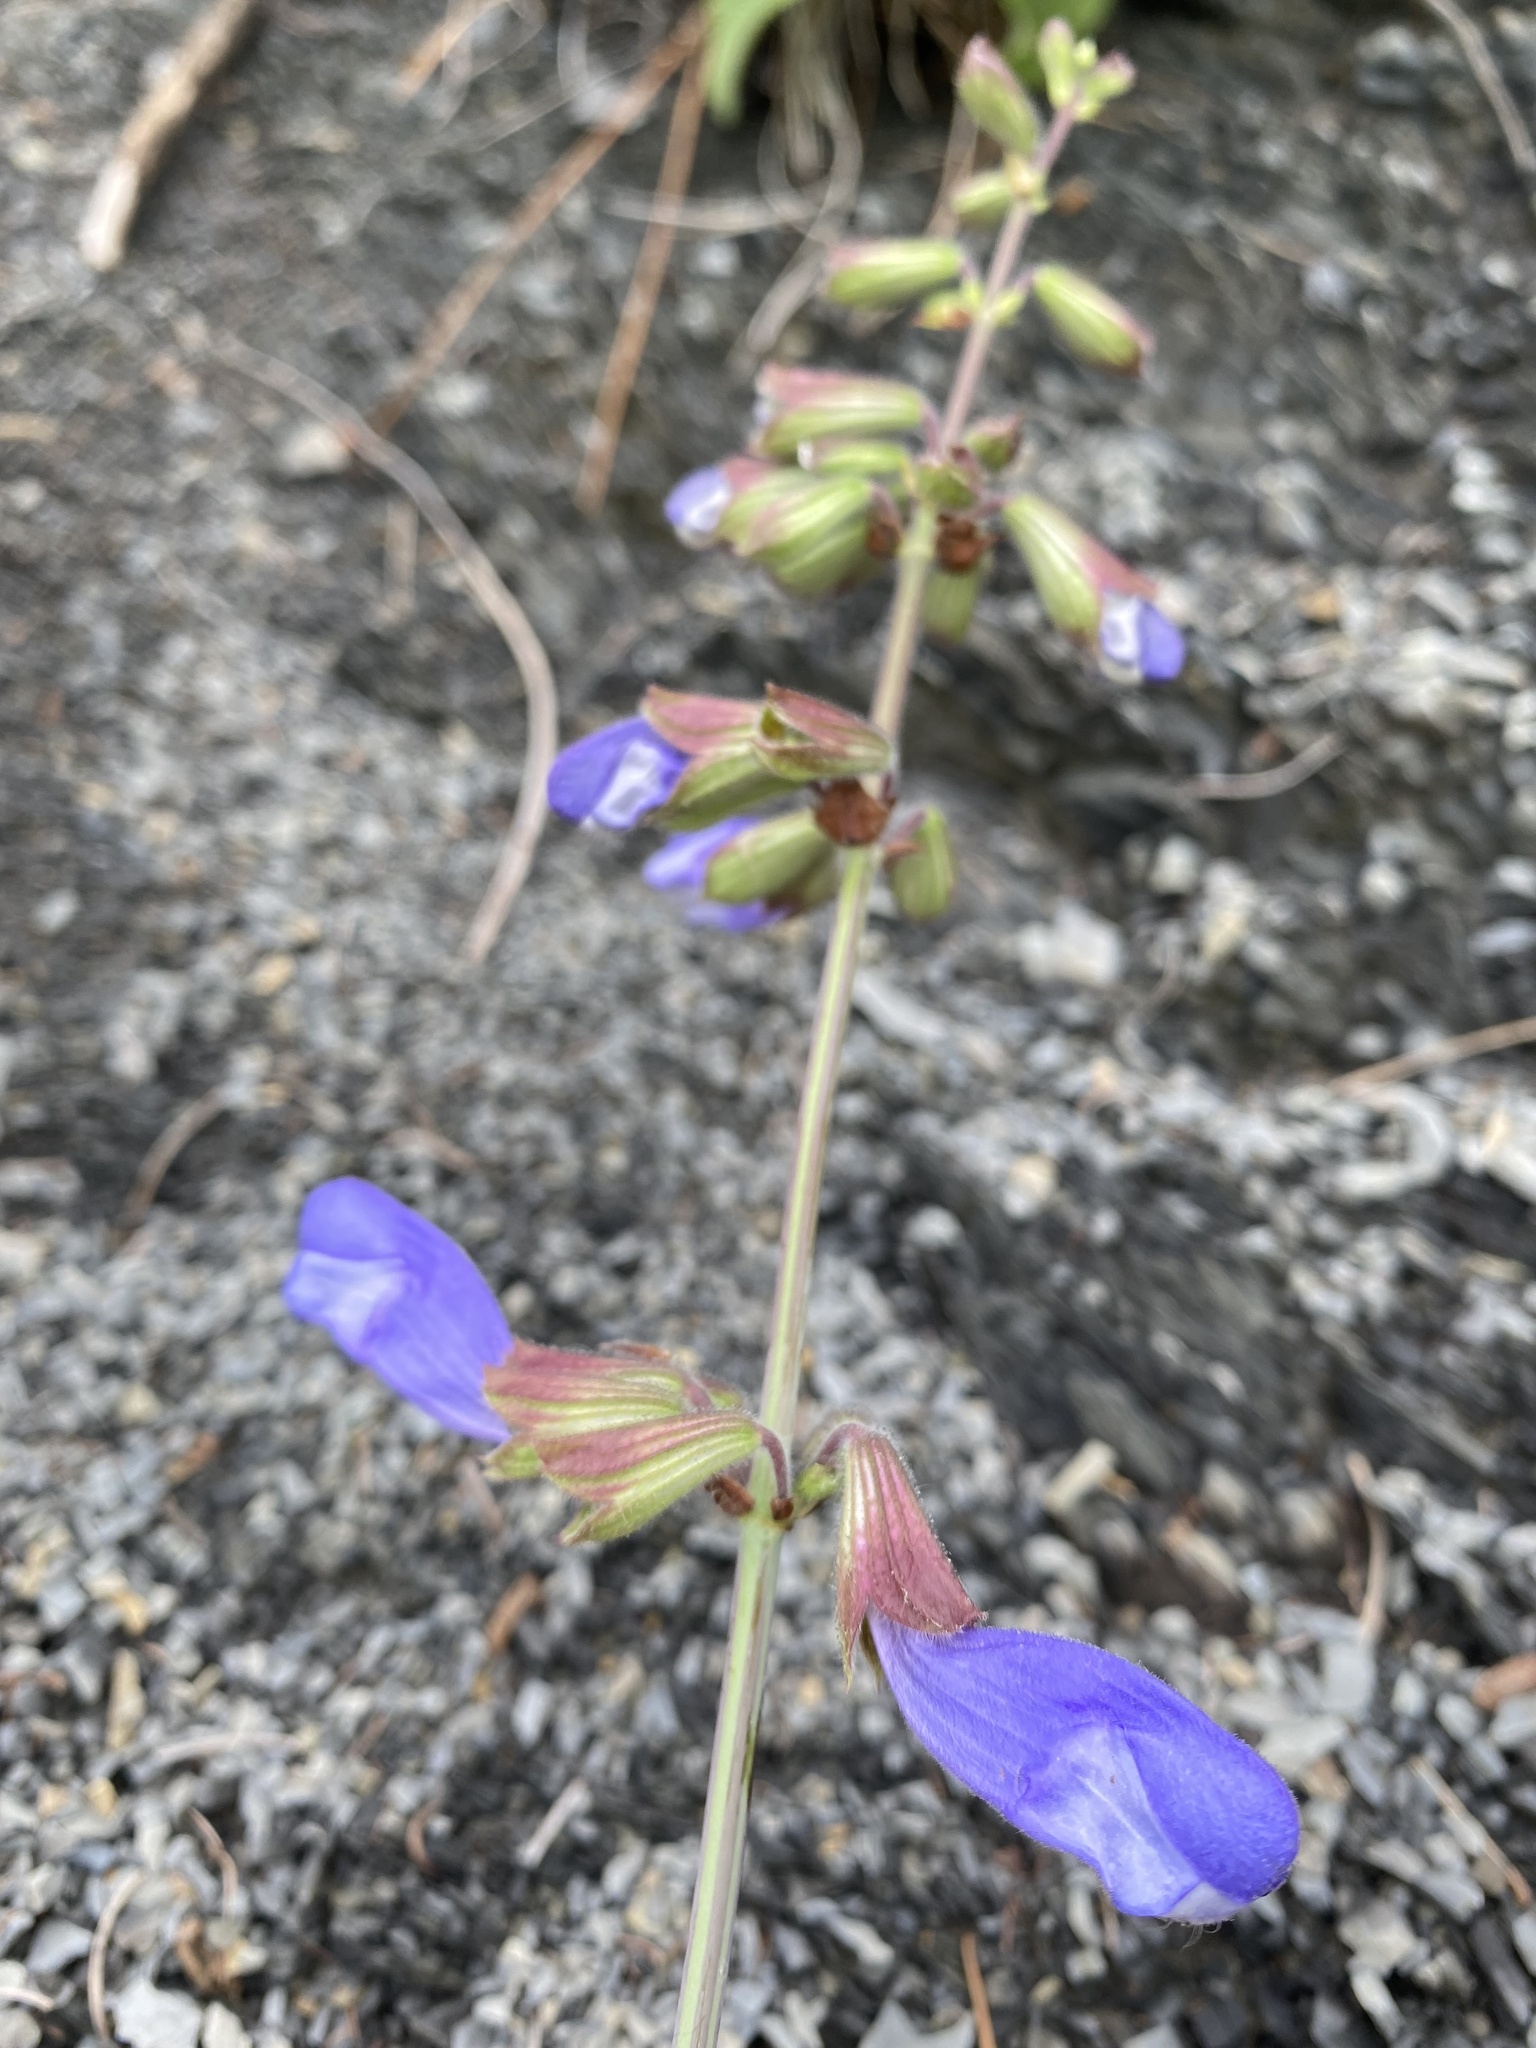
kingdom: Plantae
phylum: Tracheophyta
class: Magnoliopsida
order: Lamiales
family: Lamiaceae
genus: Salvia
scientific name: Salvia ringens
